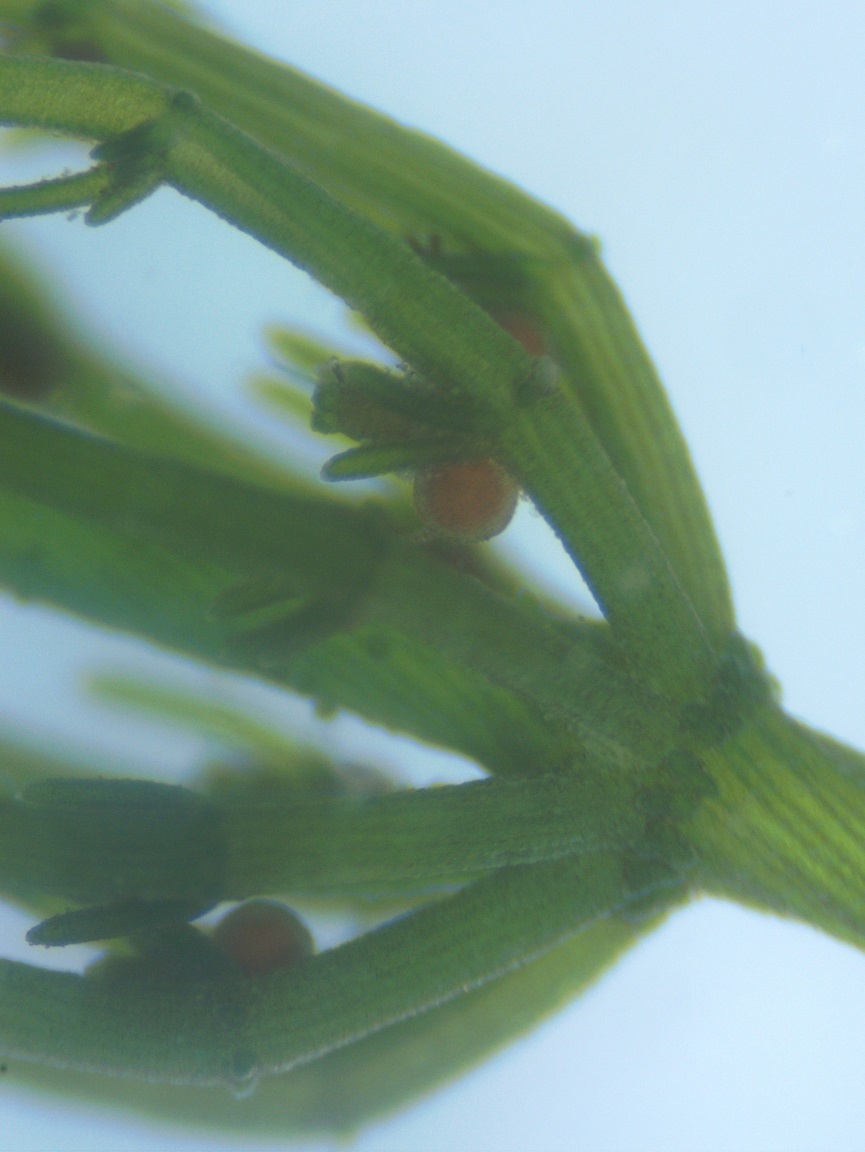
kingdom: Plantae
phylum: Charophyta
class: Charophyceae
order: Charales
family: Characeae
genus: Chara
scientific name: Chara contraria
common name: Opposite stonewort
